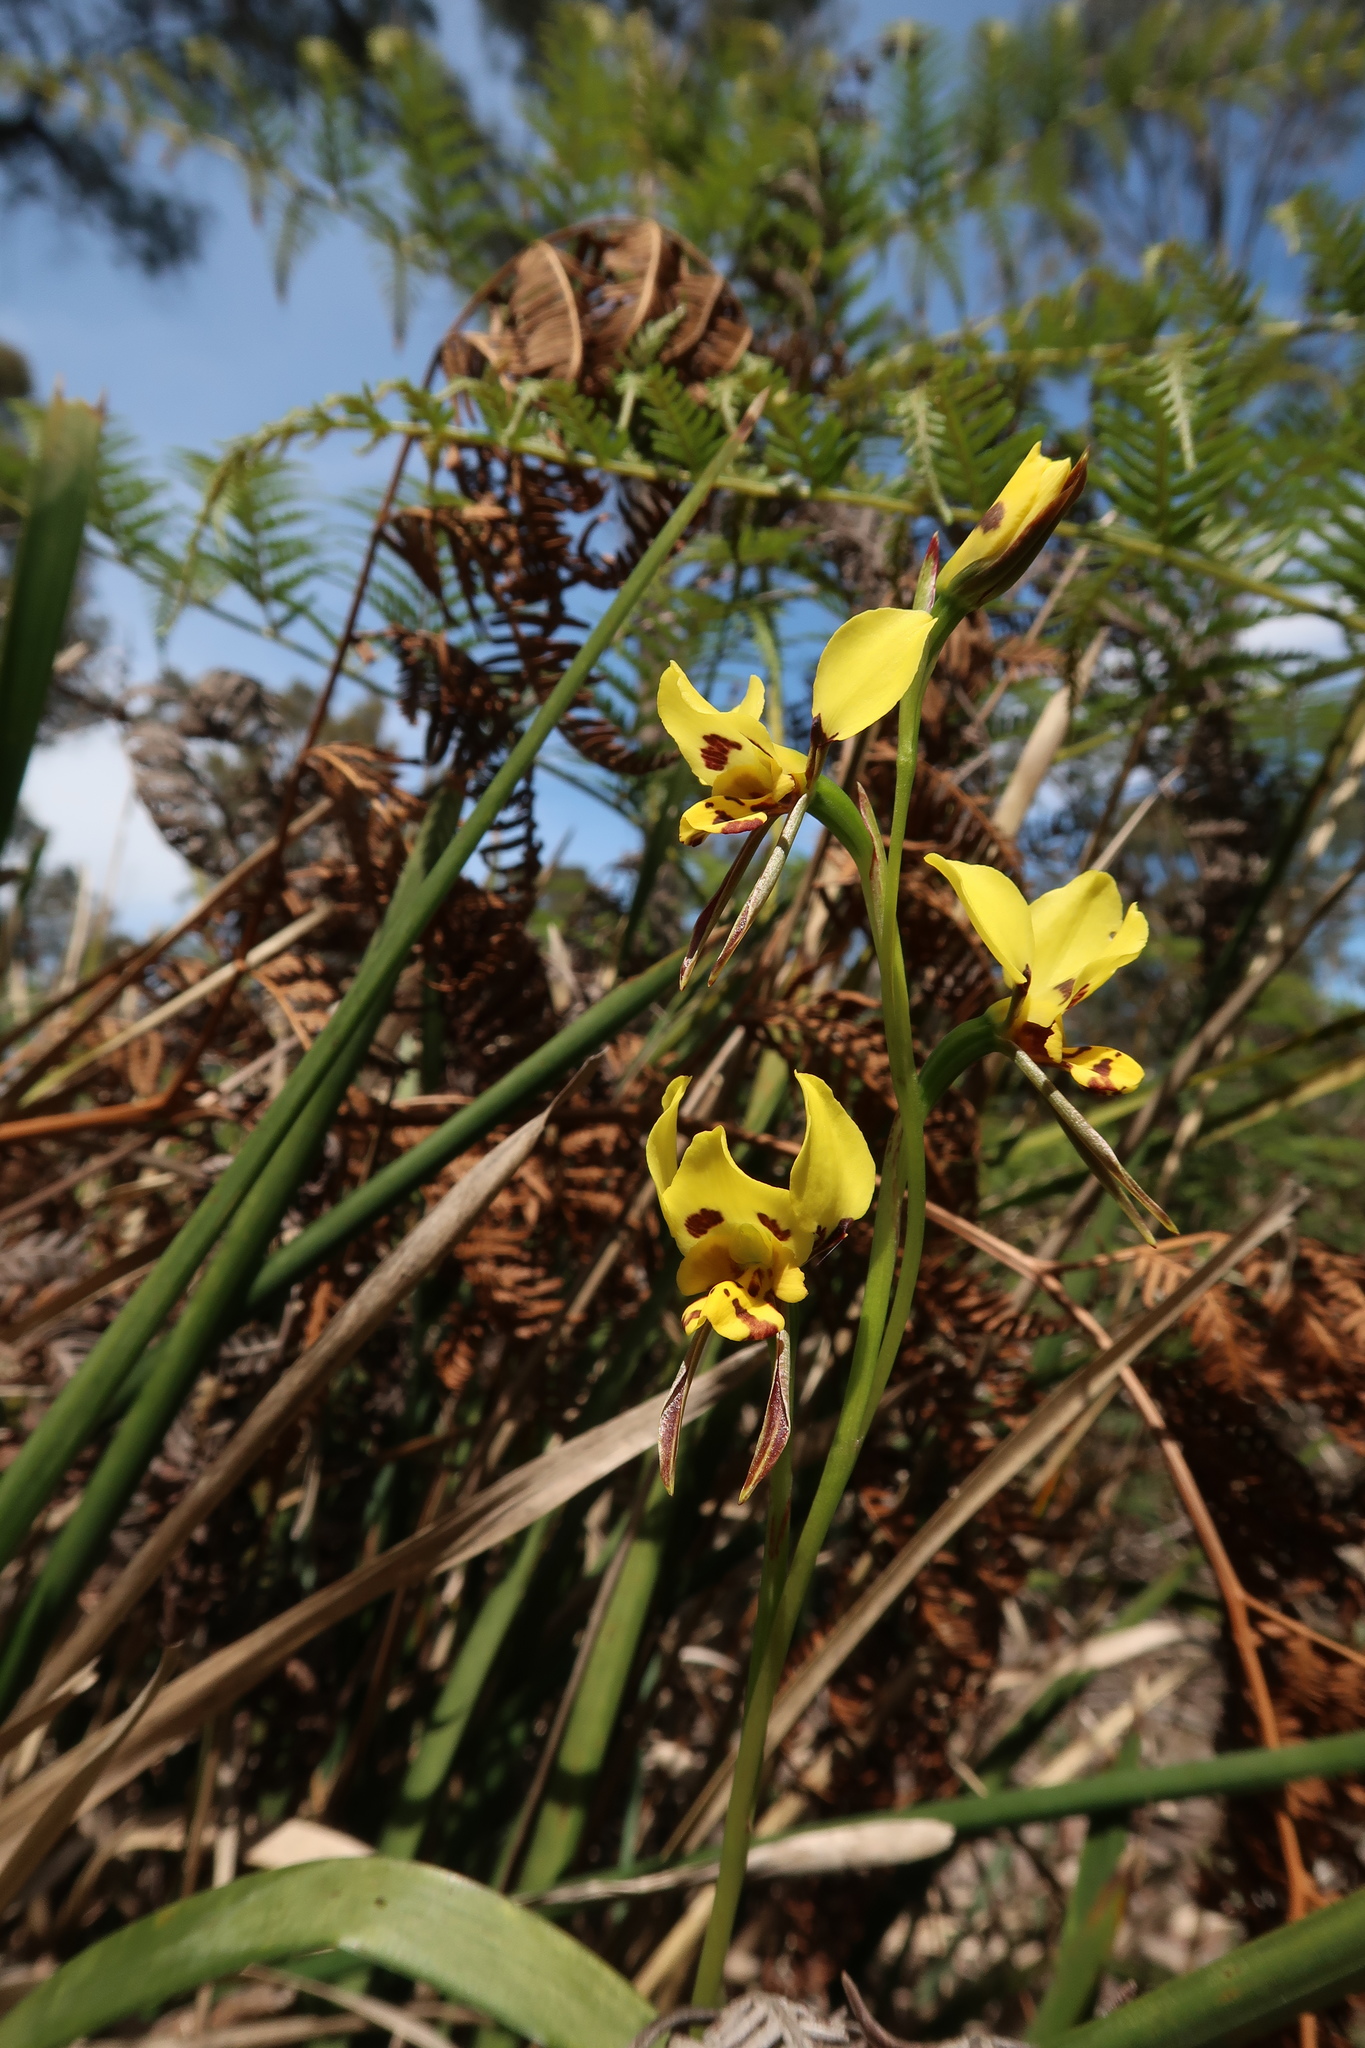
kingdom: Plantae
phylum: Tracheophyta
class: Liliopsida
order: Asparagales
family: Orchidaceae
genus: Diuris
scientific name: Diuris sulphurea
